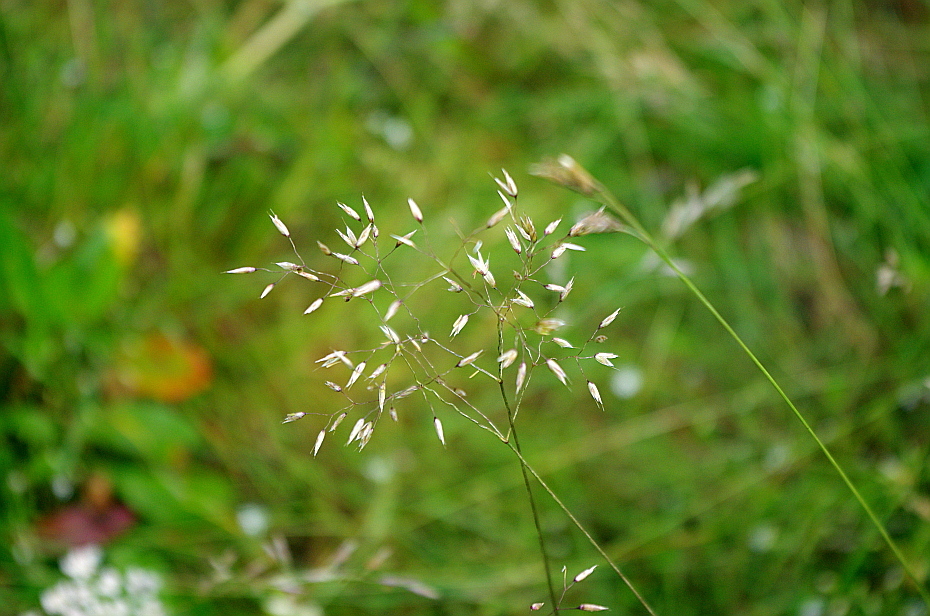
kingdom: Plantae
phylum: Tracheophyta
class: Liliopsida
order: Poales
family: Poaceae
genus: Avenella
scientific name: Avenella flexuosa
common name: Wavy hairgrass
